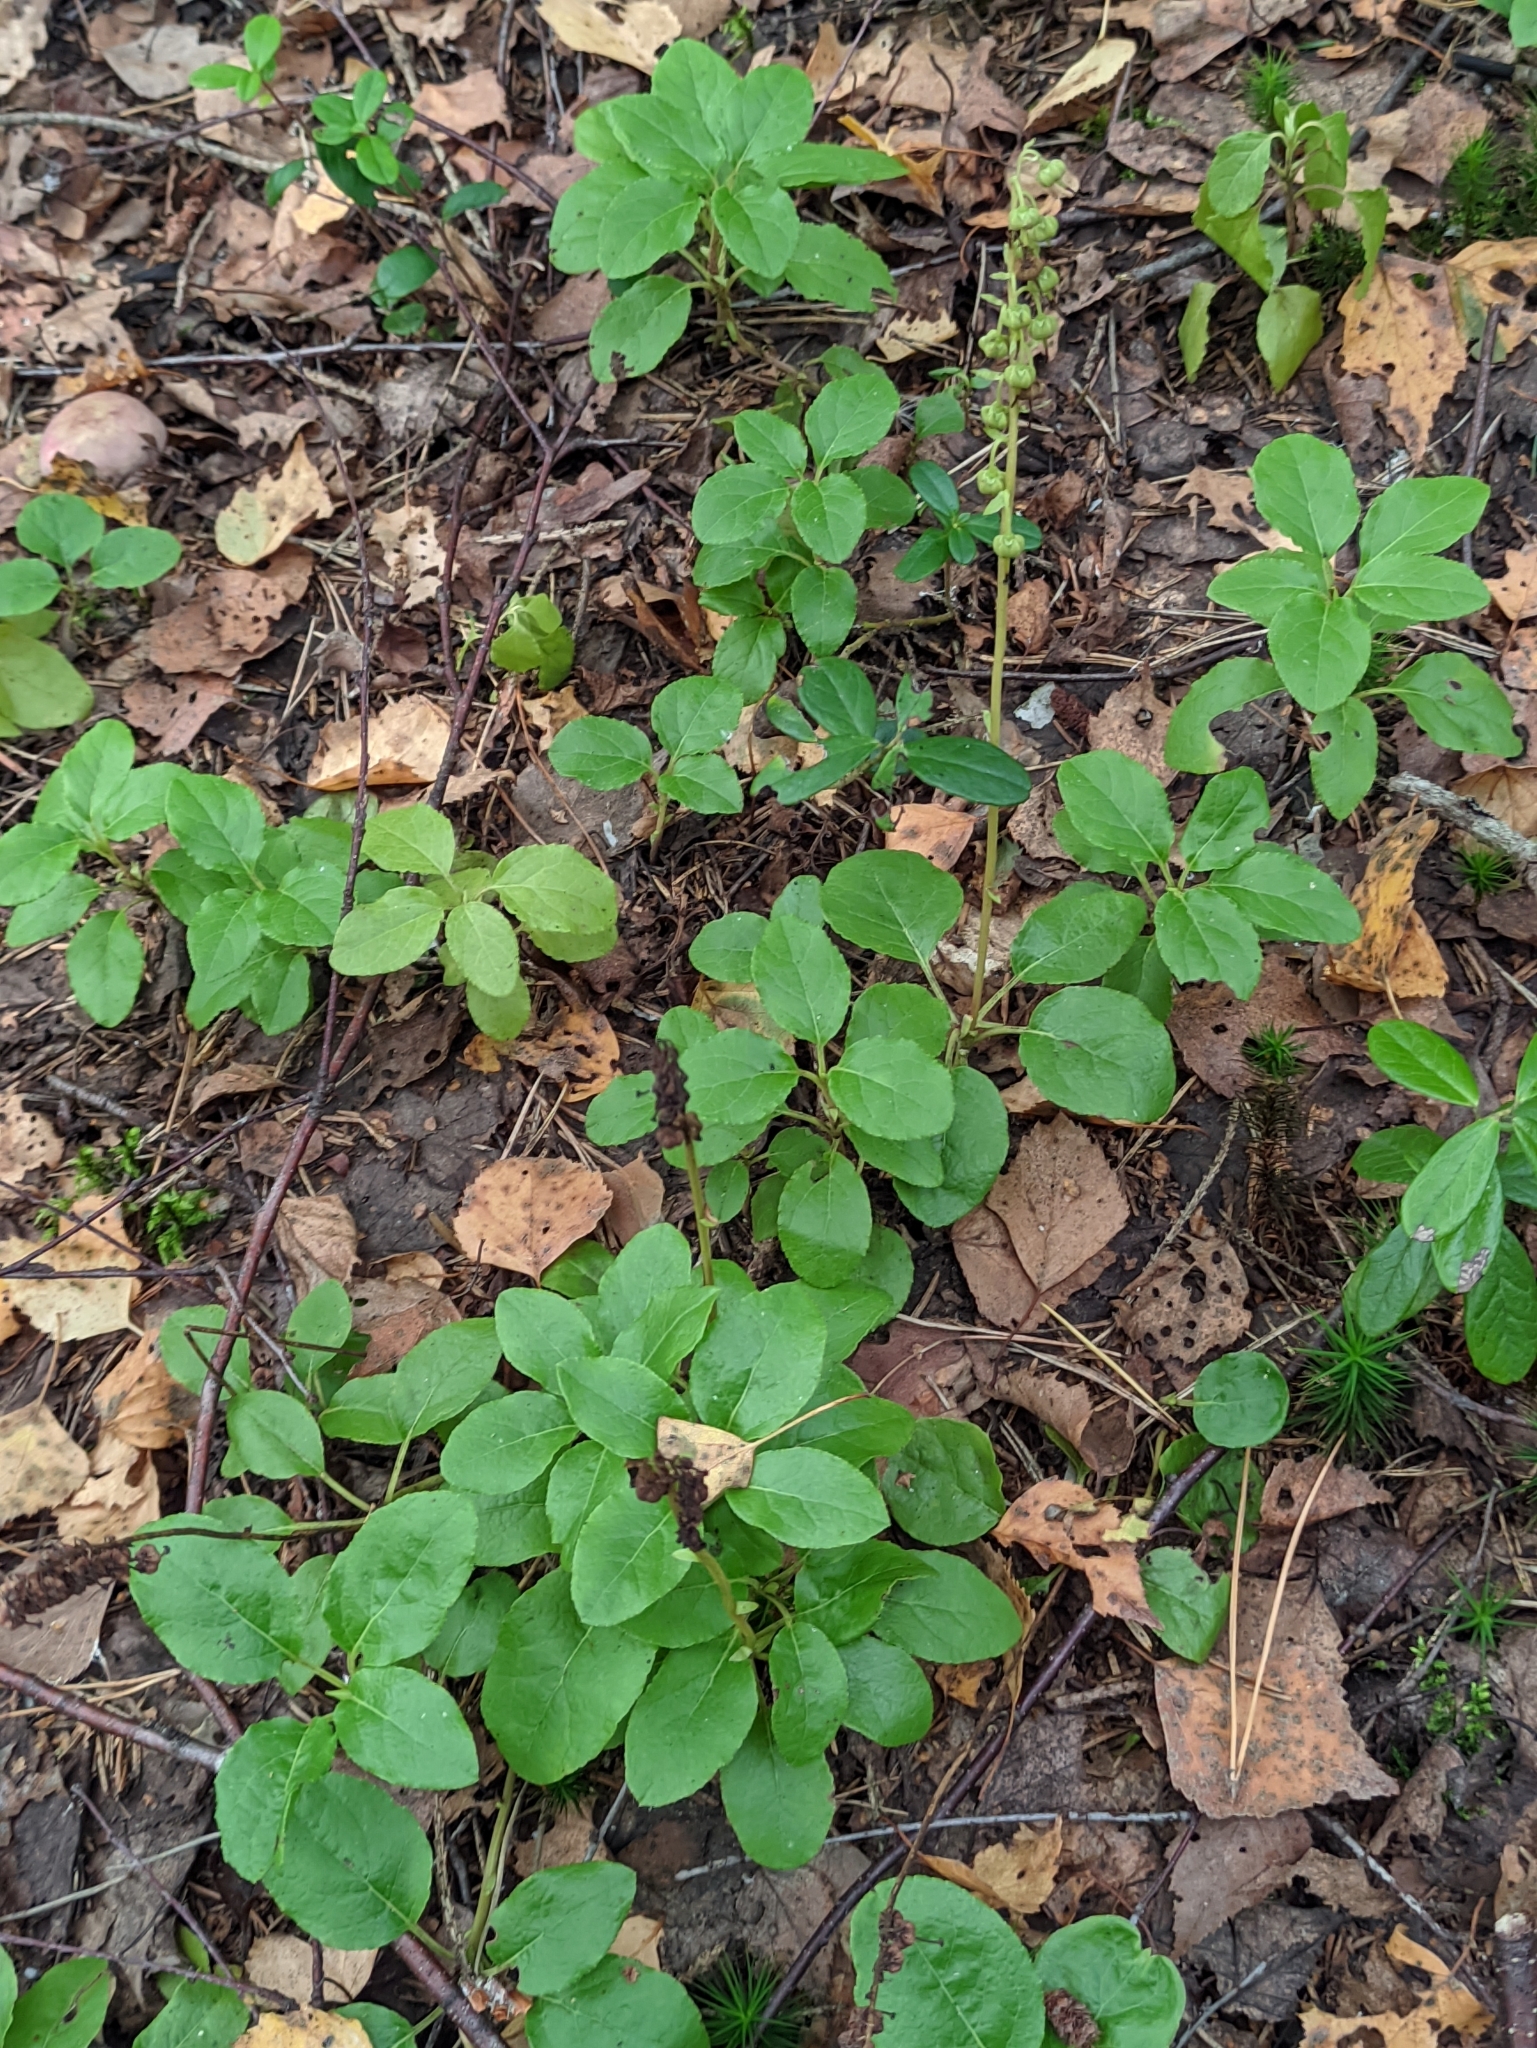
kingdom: Plantae
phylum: Tracheophyta
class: Magnoliopsida
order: Ericales
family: Ericaceae
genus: Orthilia
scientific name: Orthilia secunda
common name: One-sided orthilia
